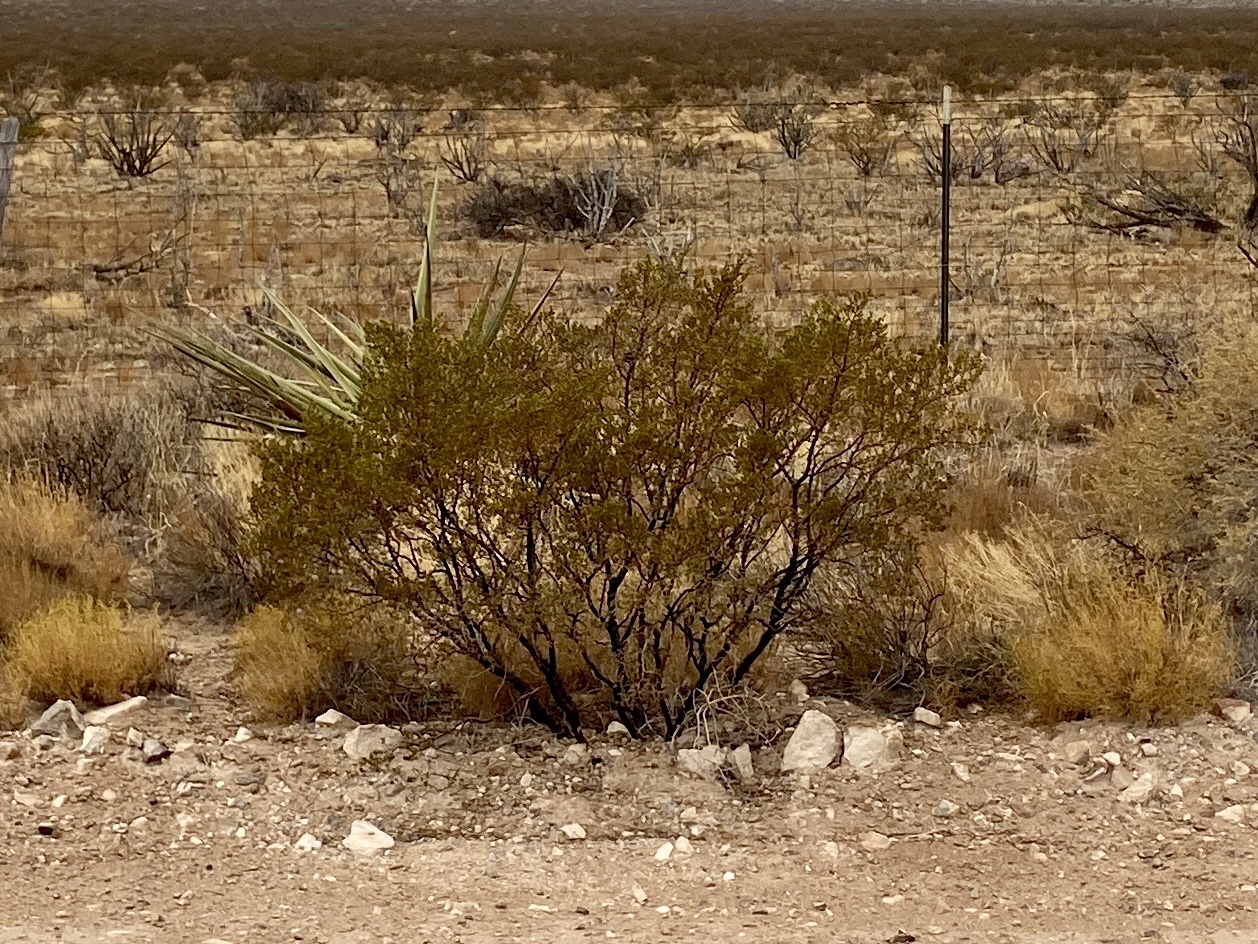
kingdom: Plantae
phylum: Tracheophyta
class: Magnoliopsida
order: Zygophyllales
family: Zygophyllaceae
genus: Larrea
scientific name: Larrea tridentata
